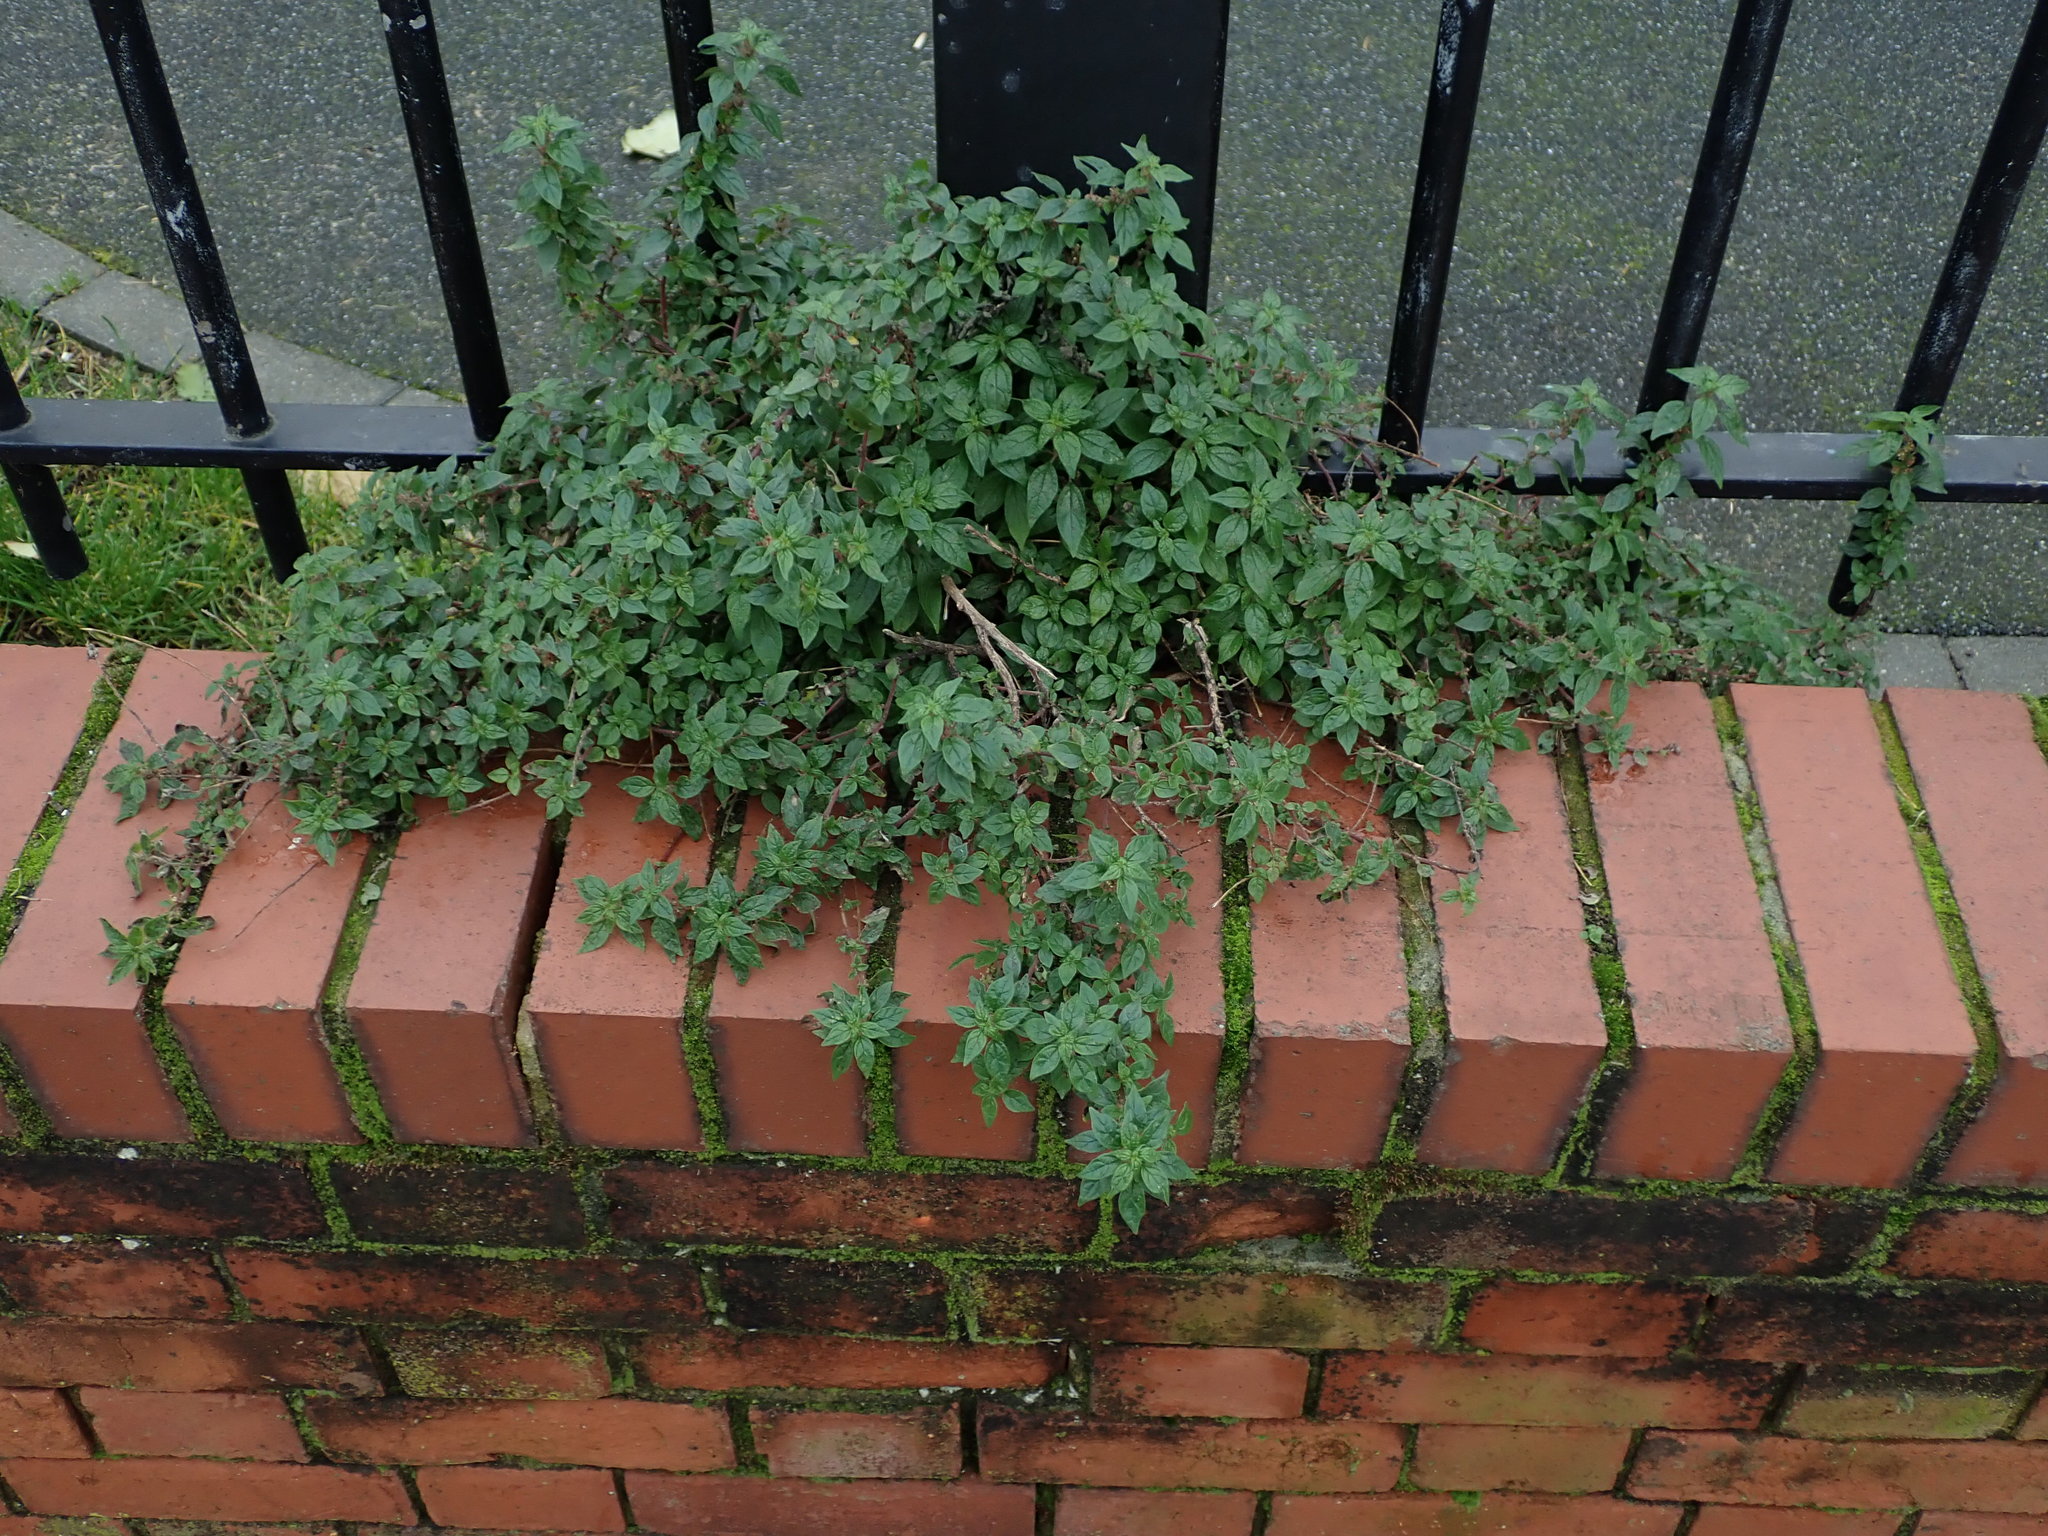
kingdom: Plantae
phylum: Tracheophyta
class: Magnoliopsida
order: Rosales
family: Urticaceae
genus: Parietaria
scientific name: Parietaria judaica
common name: Pellitory-of-the-wall
